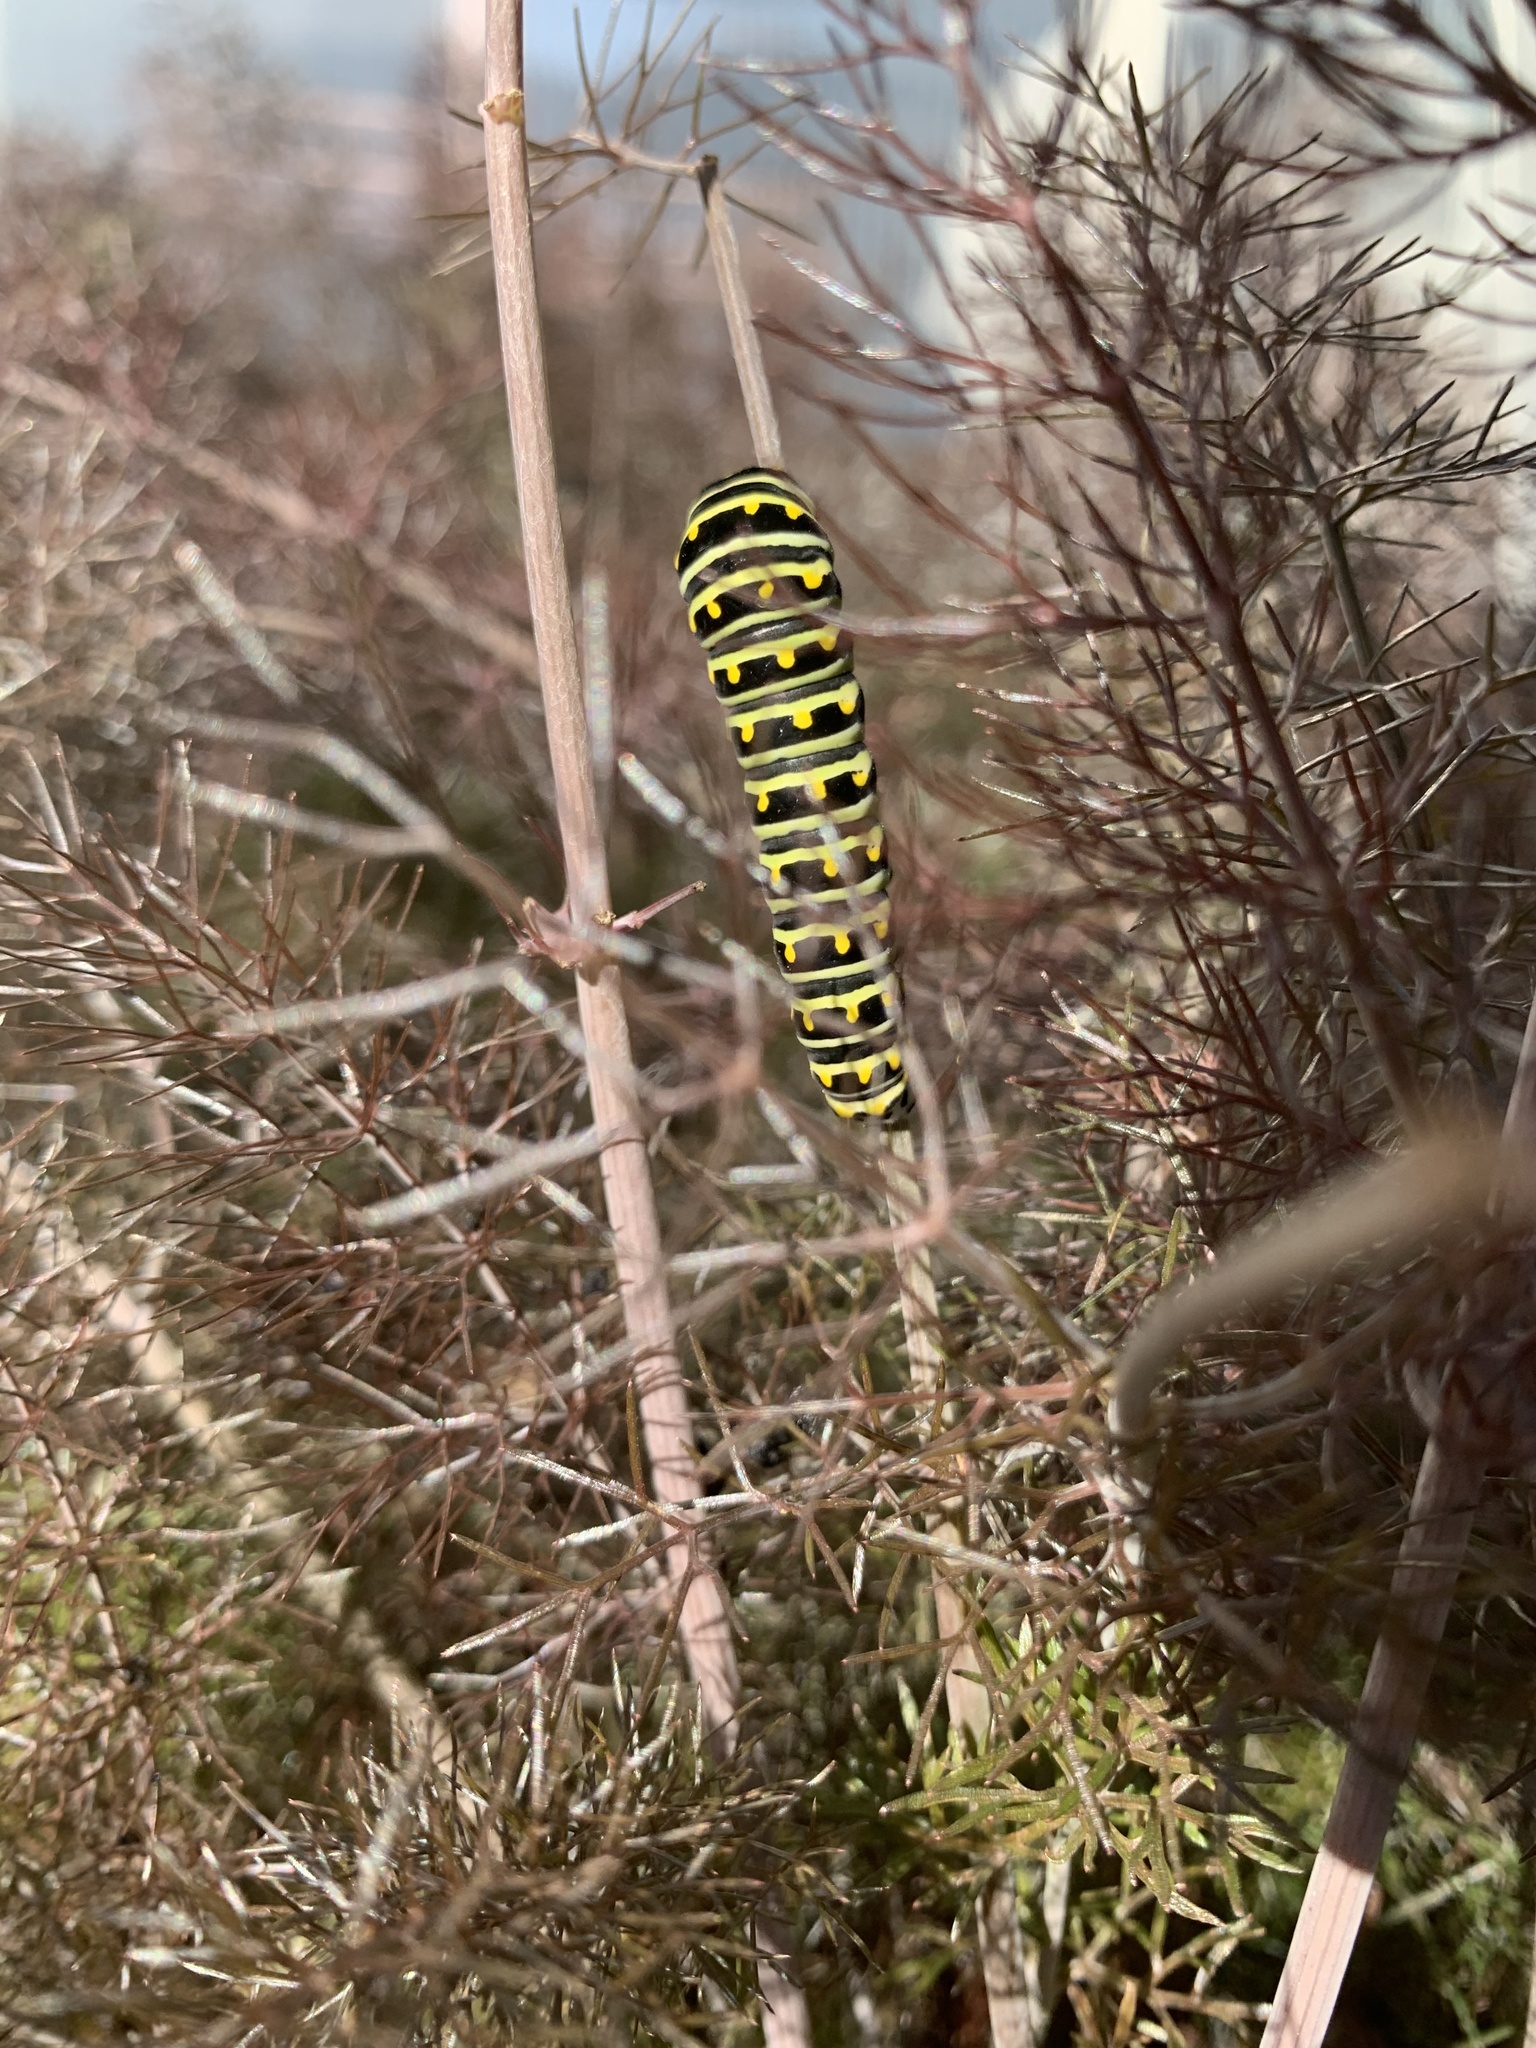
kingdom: Animalia
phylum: Arthropoda
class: Insecta
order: Lepidoptera
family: Papilionidae
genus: Papilio
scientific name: Papilio polyxenes
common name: Black swallowtail
